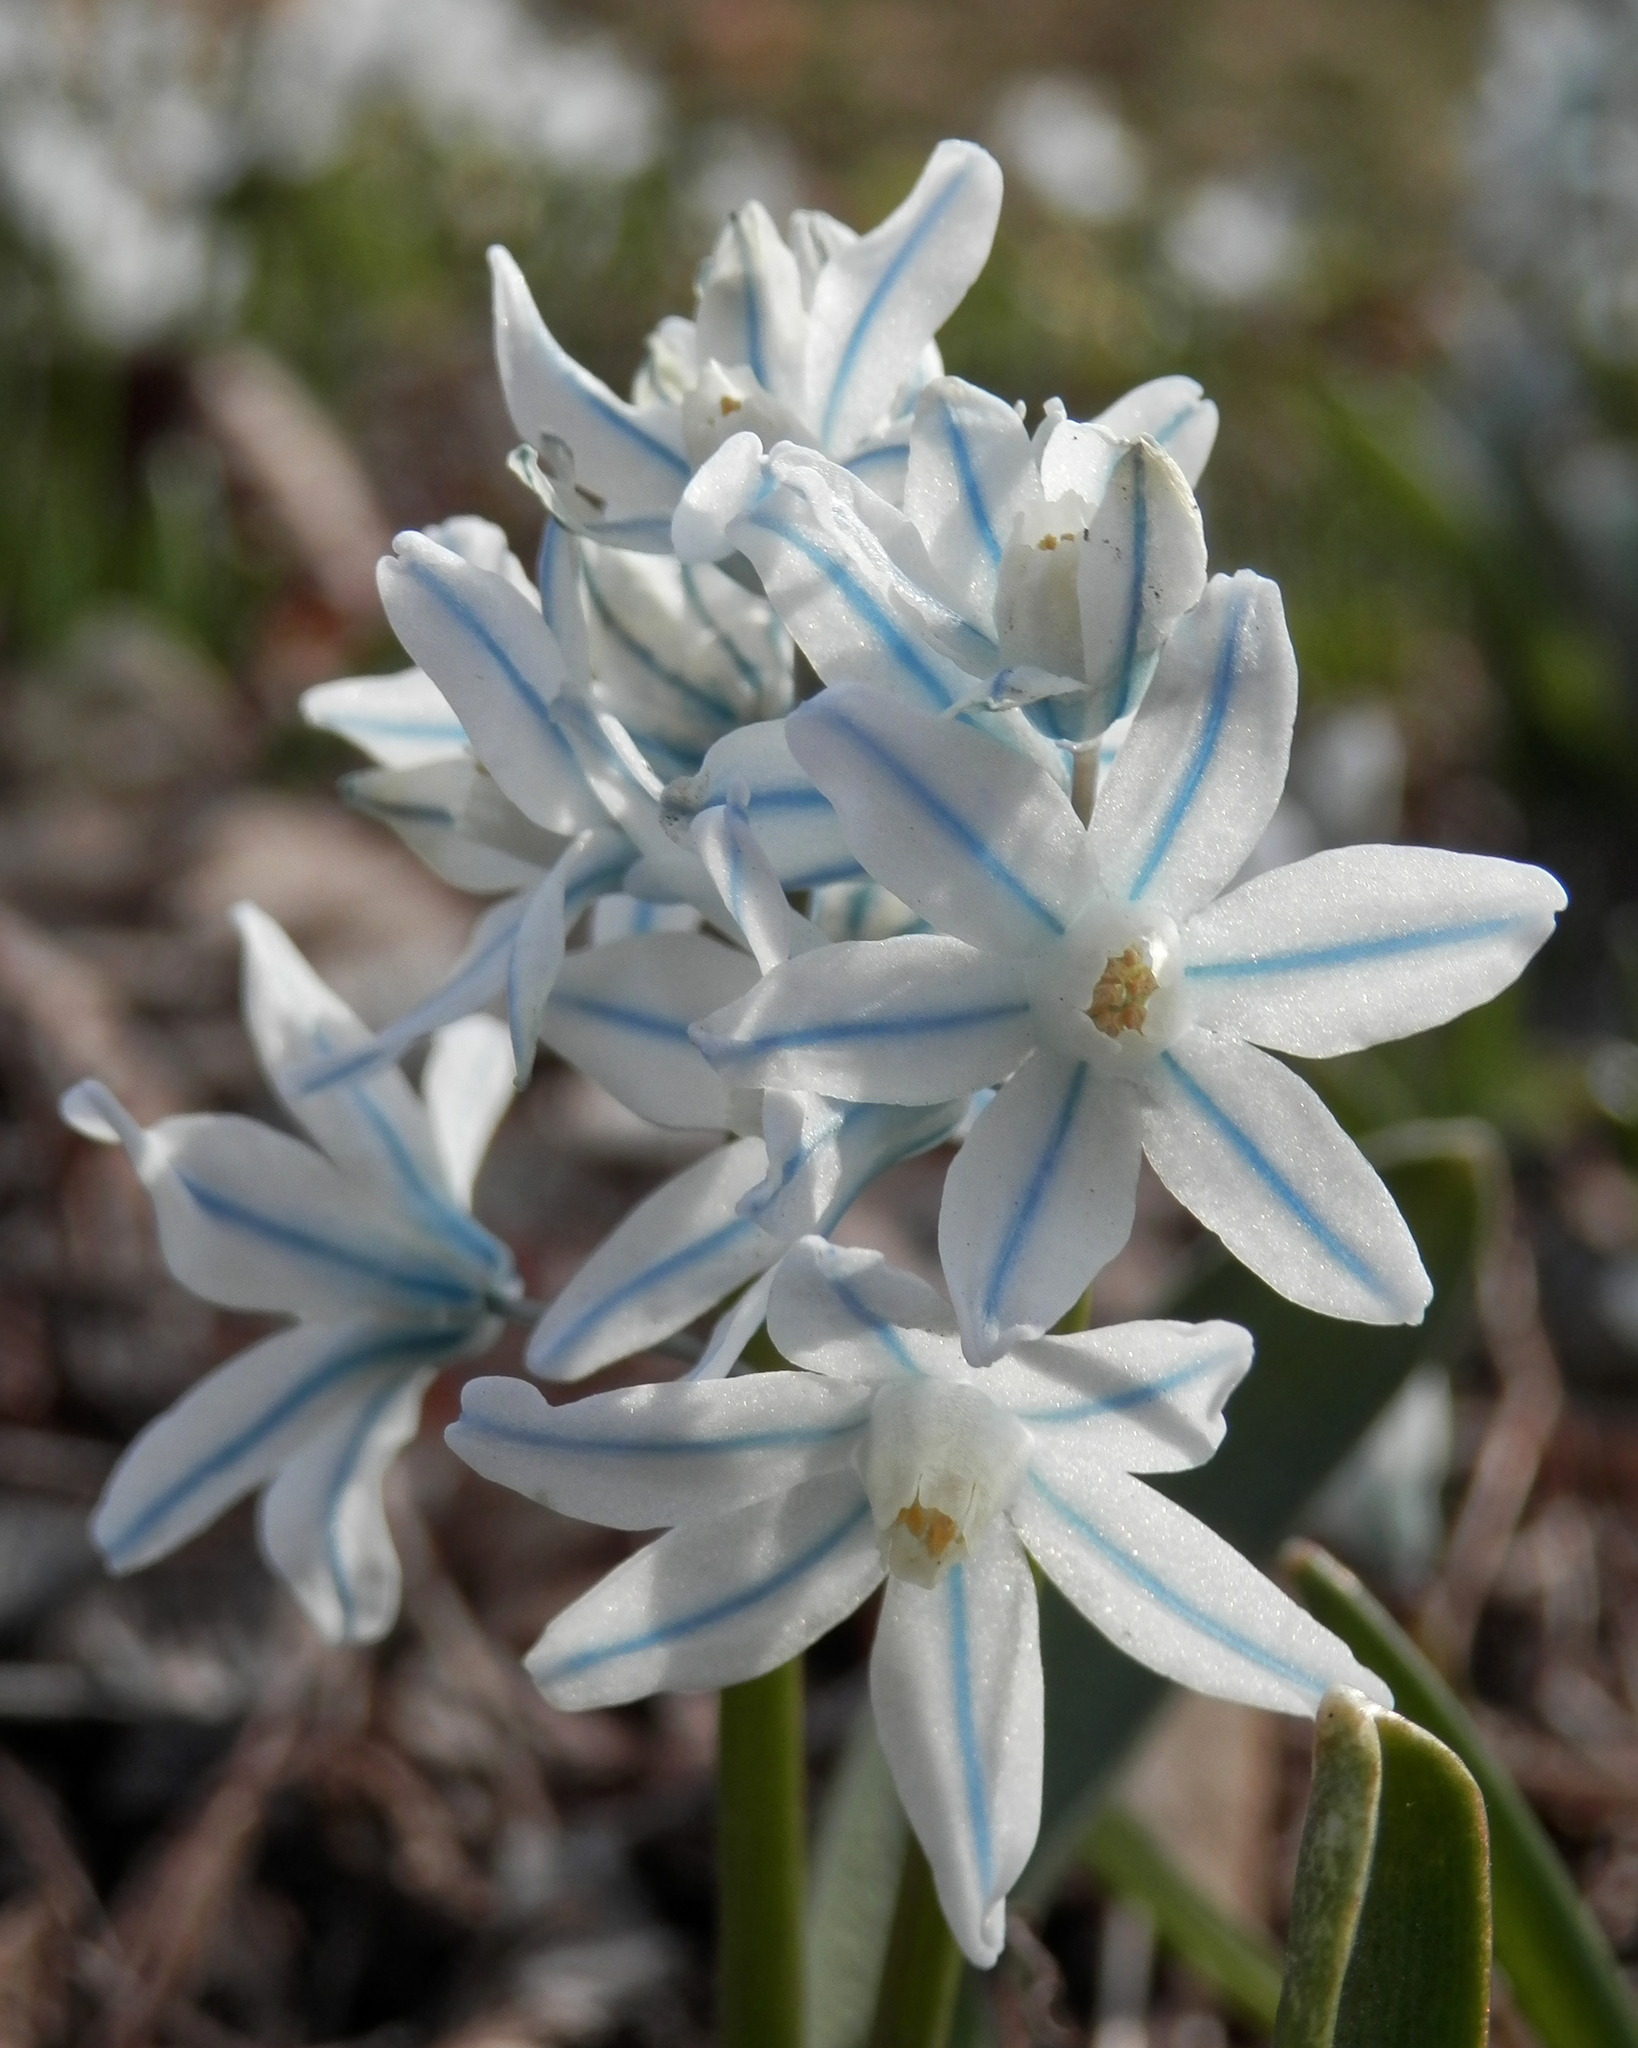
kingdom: Plantae
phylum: Tracheophyta
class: Liliopsida
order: Asparagales
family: Asparagaceae
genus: Puschkinia
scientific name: Puschkinia scilloides
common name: Striped squill
